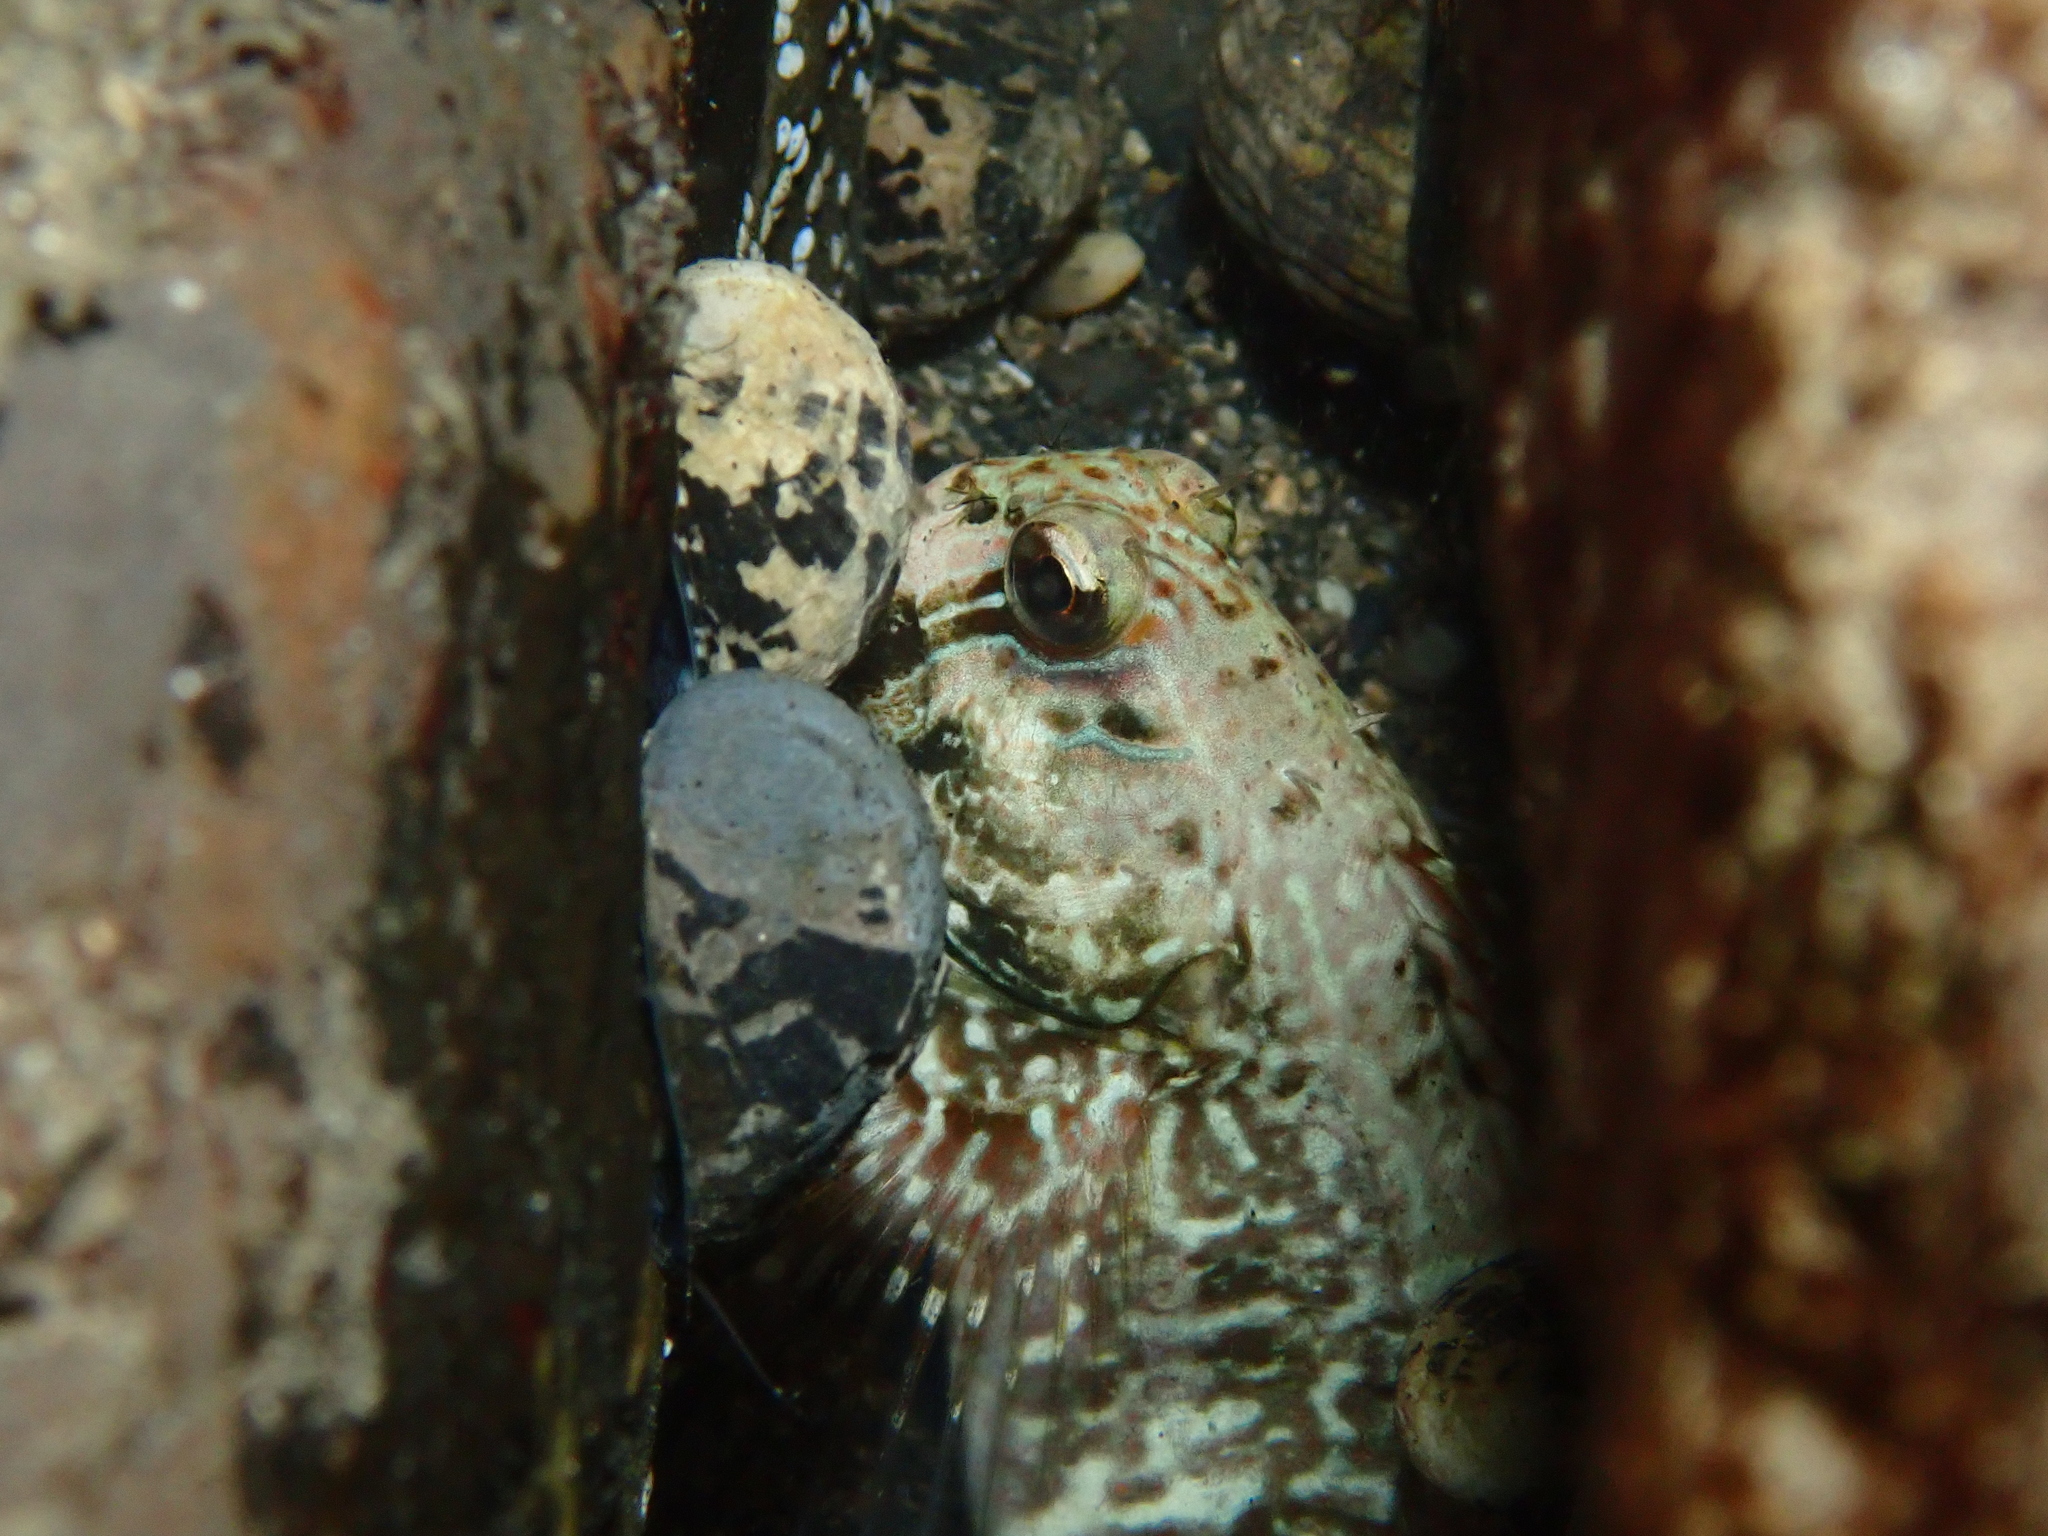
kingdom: Animalia
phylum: Chordata
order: Perciformes
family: Blenniidae
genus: Istiblennius
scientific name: Istiblennius edentulus
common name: Rippled rockskipper
